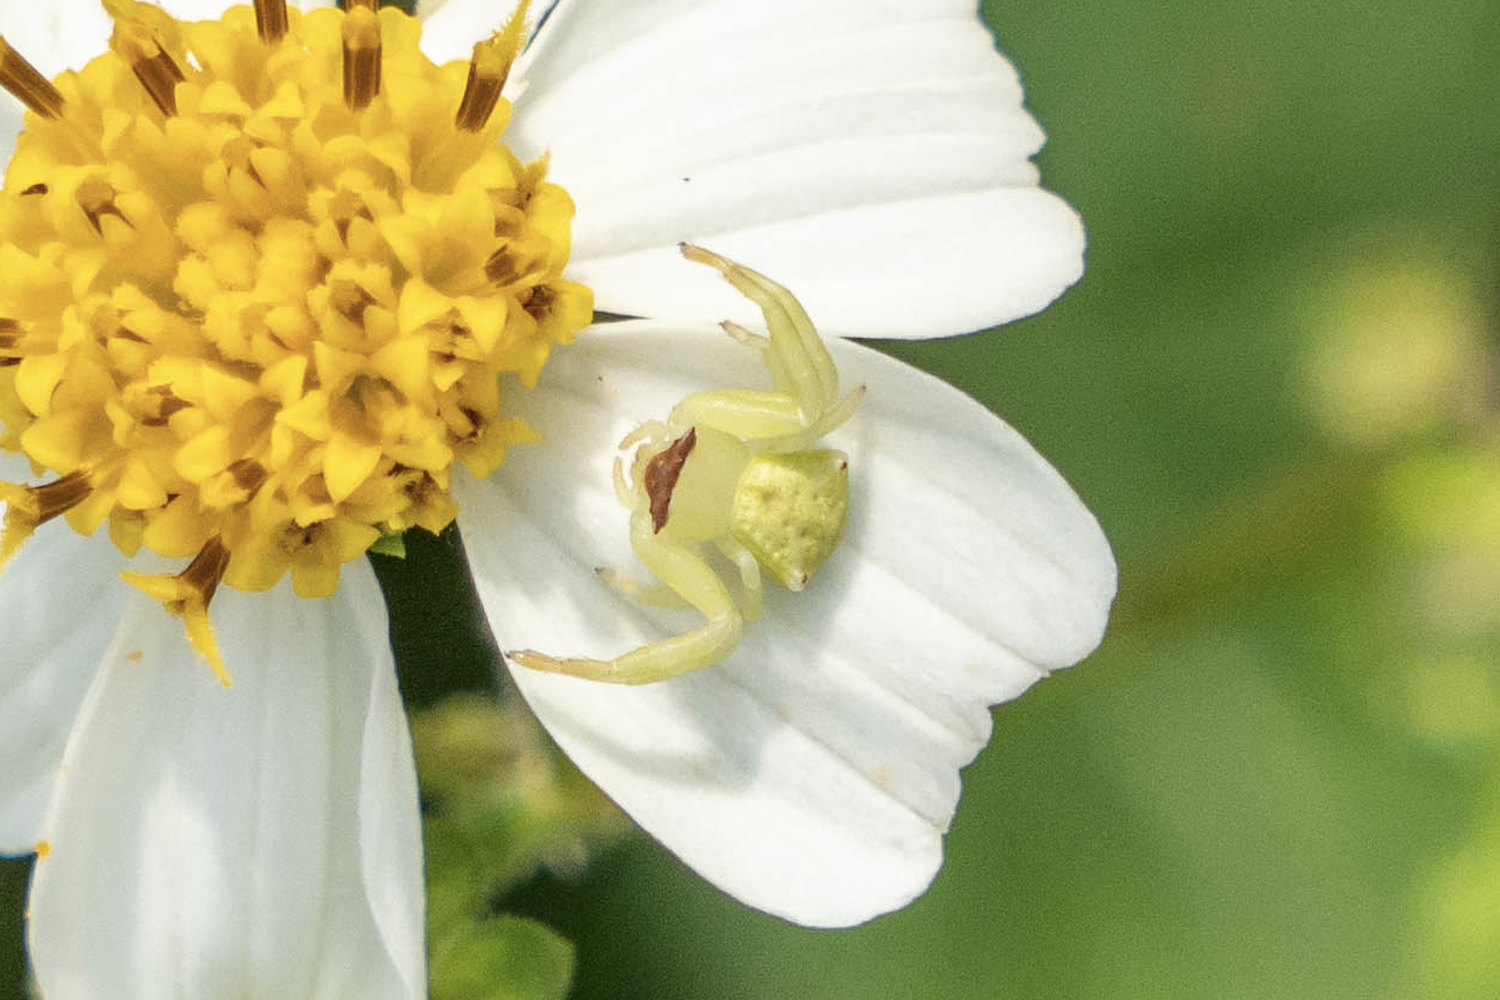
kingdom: Animalia
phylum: Arthropoda
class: Arachnida
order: Araneae
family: Thomisidae
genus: Thomisus
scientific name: Thomisus labefactus
